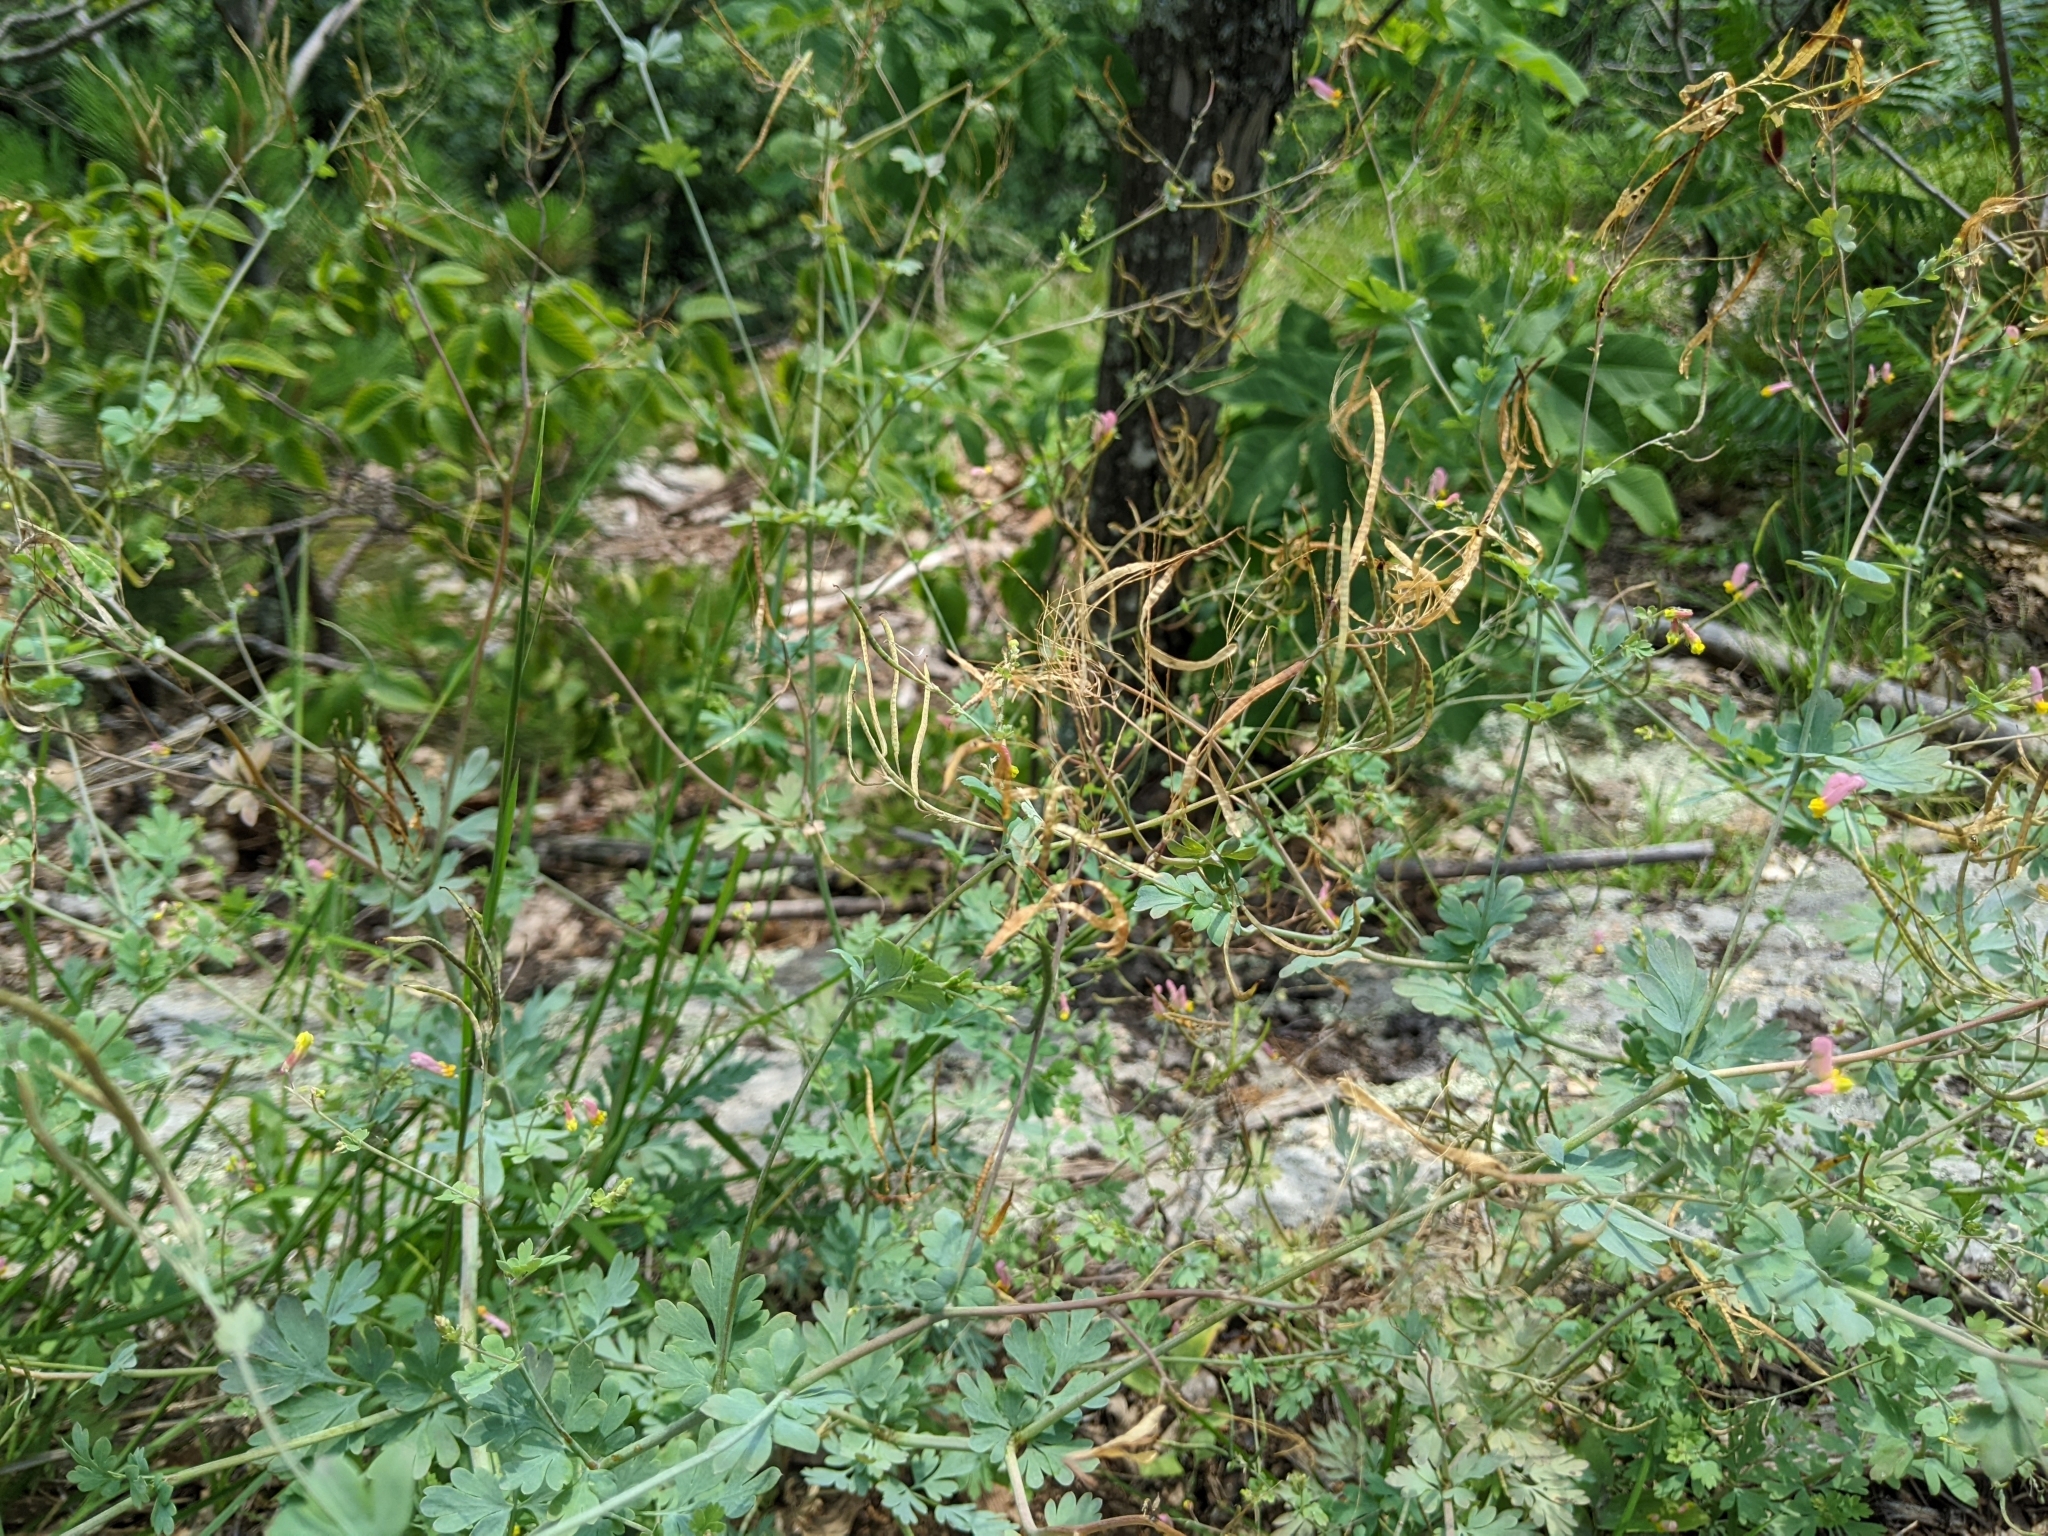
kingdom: Plantae
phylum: Tracheophyta
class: Magnoliopsida
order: Ranunculales
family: Papaveraceae
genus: Capnoides
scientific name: Capnoides sempervirens
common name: Rock harlequin
